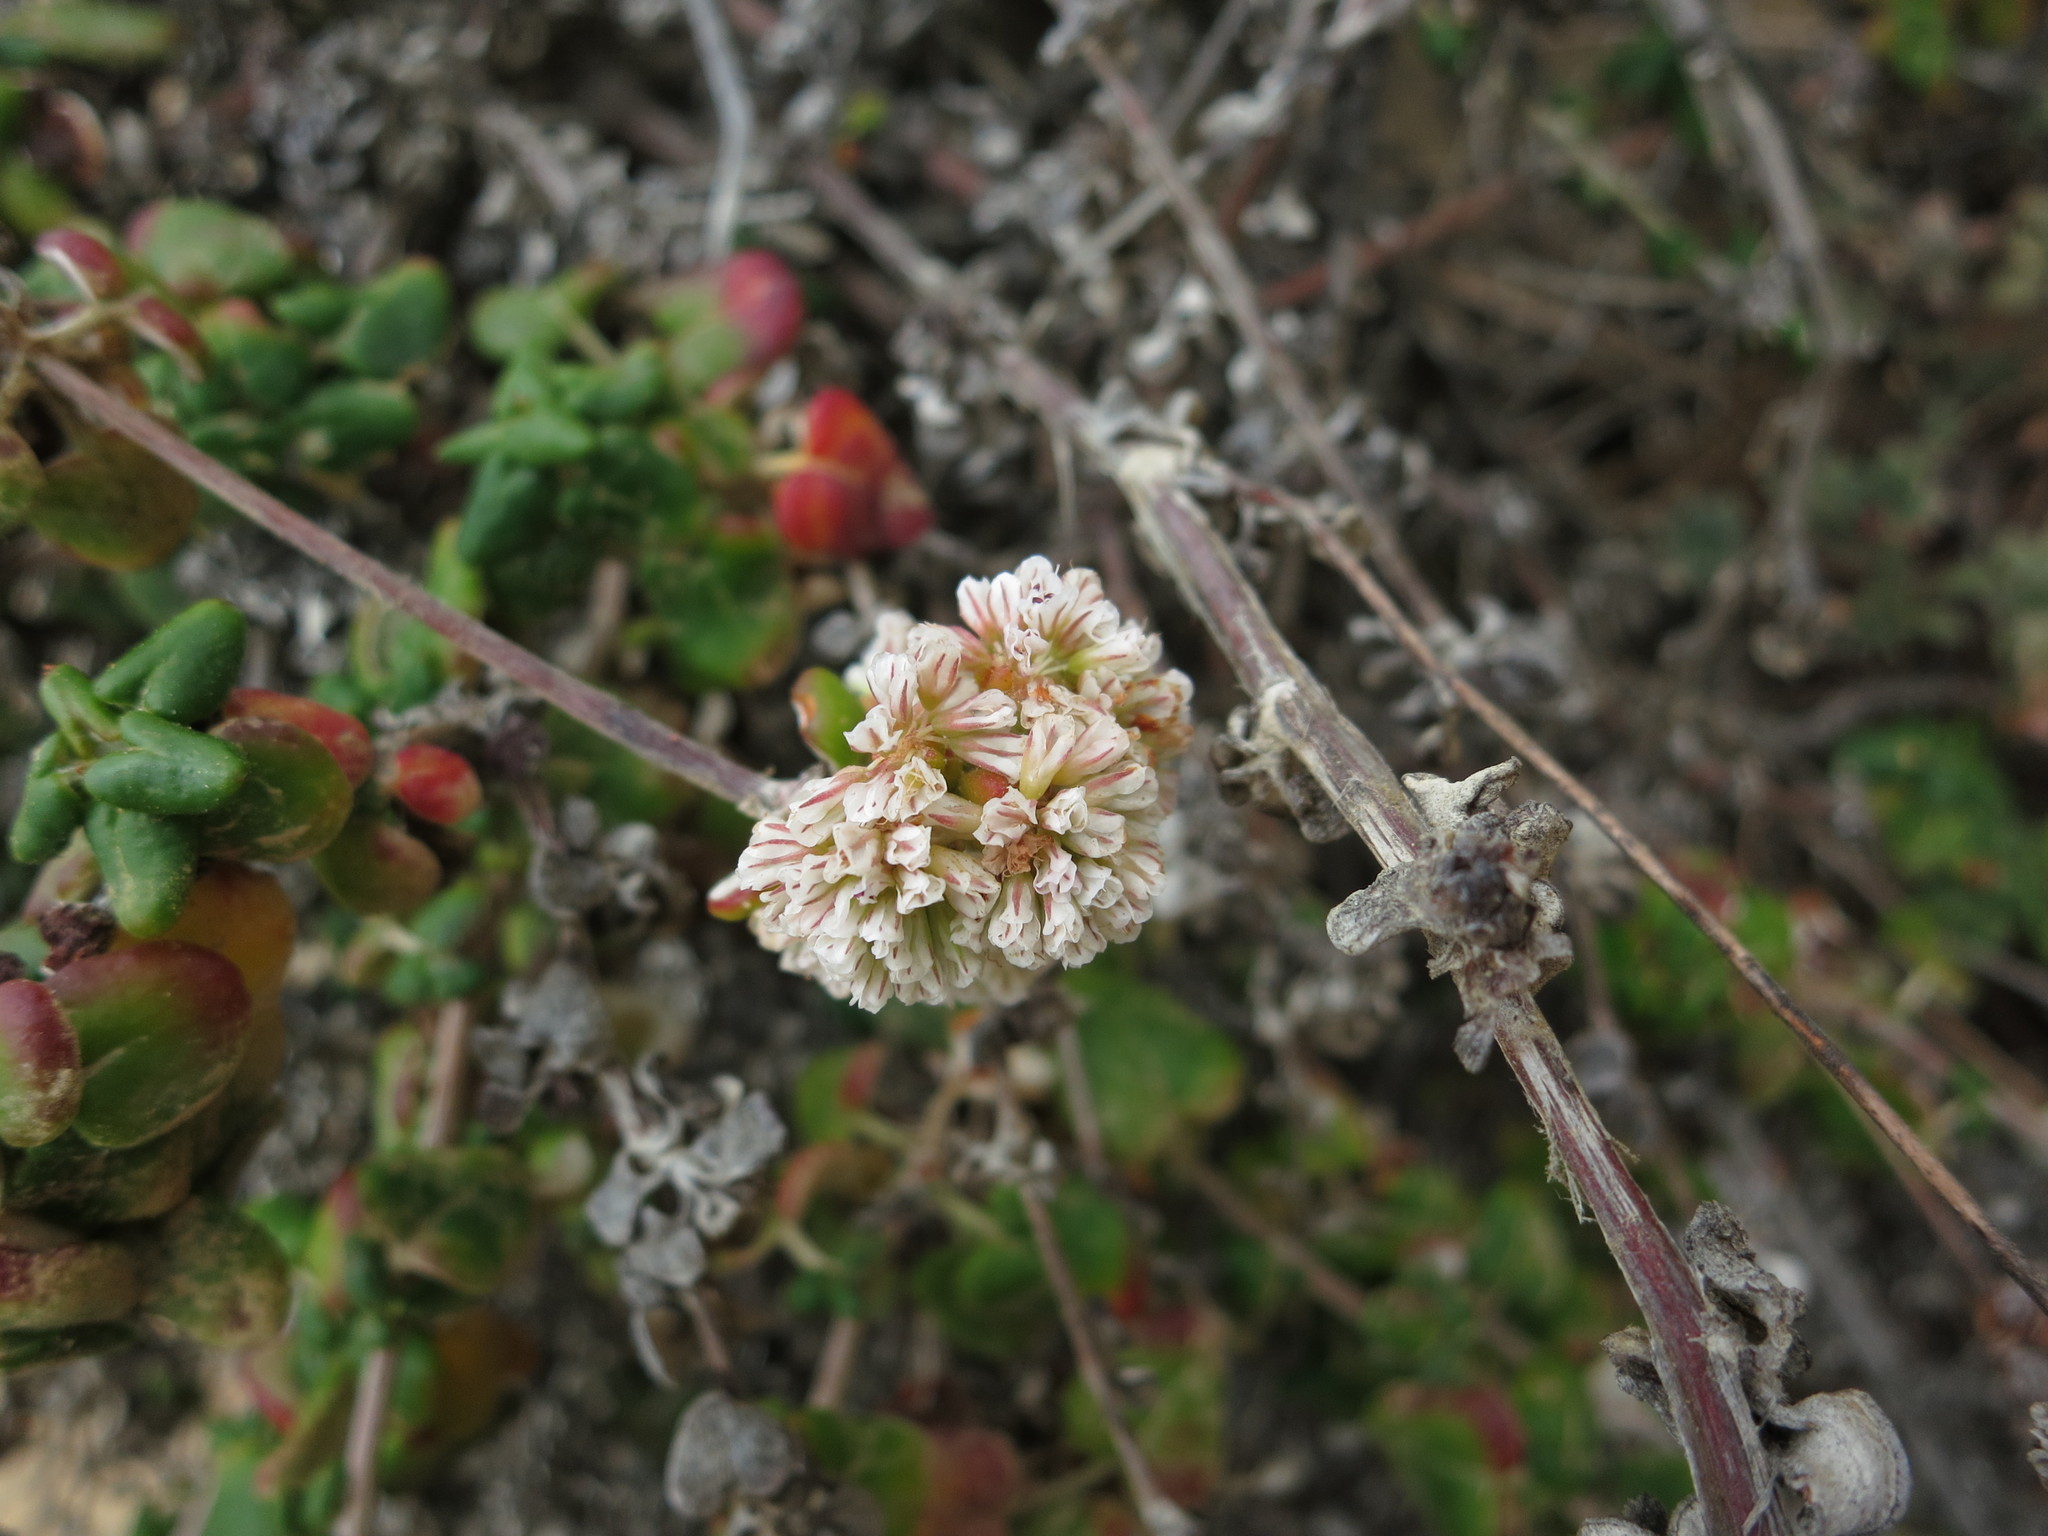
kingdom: Plantae
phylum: Tracheophyta
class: Magnoliopsida
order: Caryophyllales
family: Polygonaceae
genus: Eriogonum
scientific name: Eriogonum parvifolium
